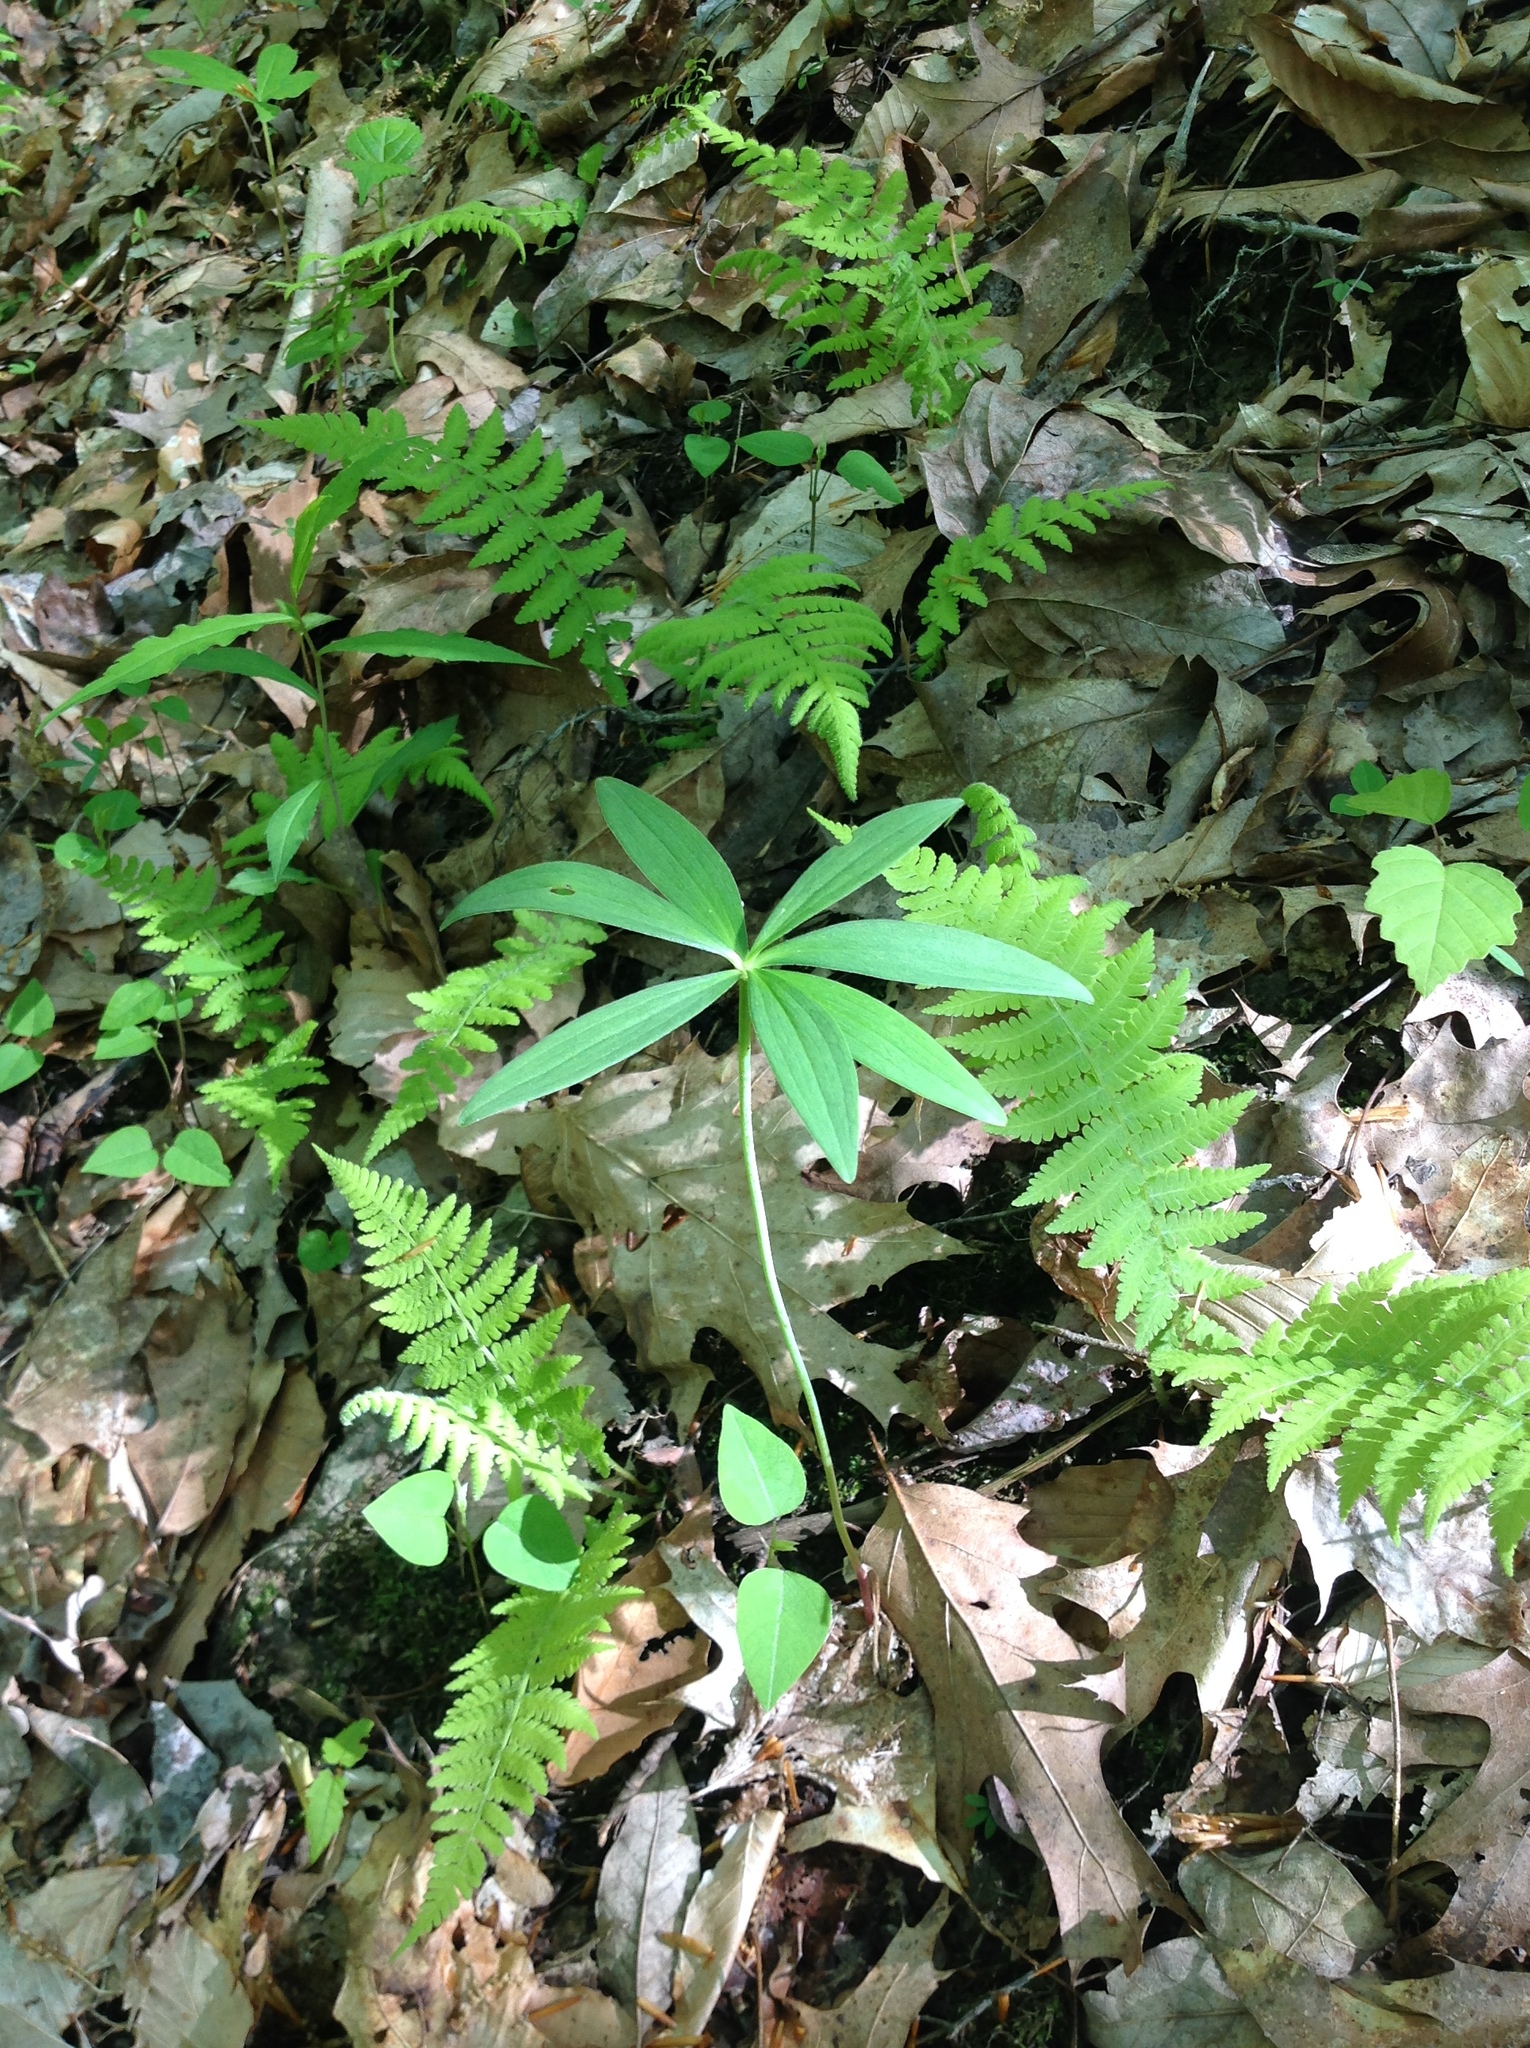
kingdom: Plantae
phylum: Tracheophyta
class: Liliopsida
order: Liliales
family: Liliaceae
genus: Medeola
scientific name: Medeola virginiana
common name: Indian cucumber-root
